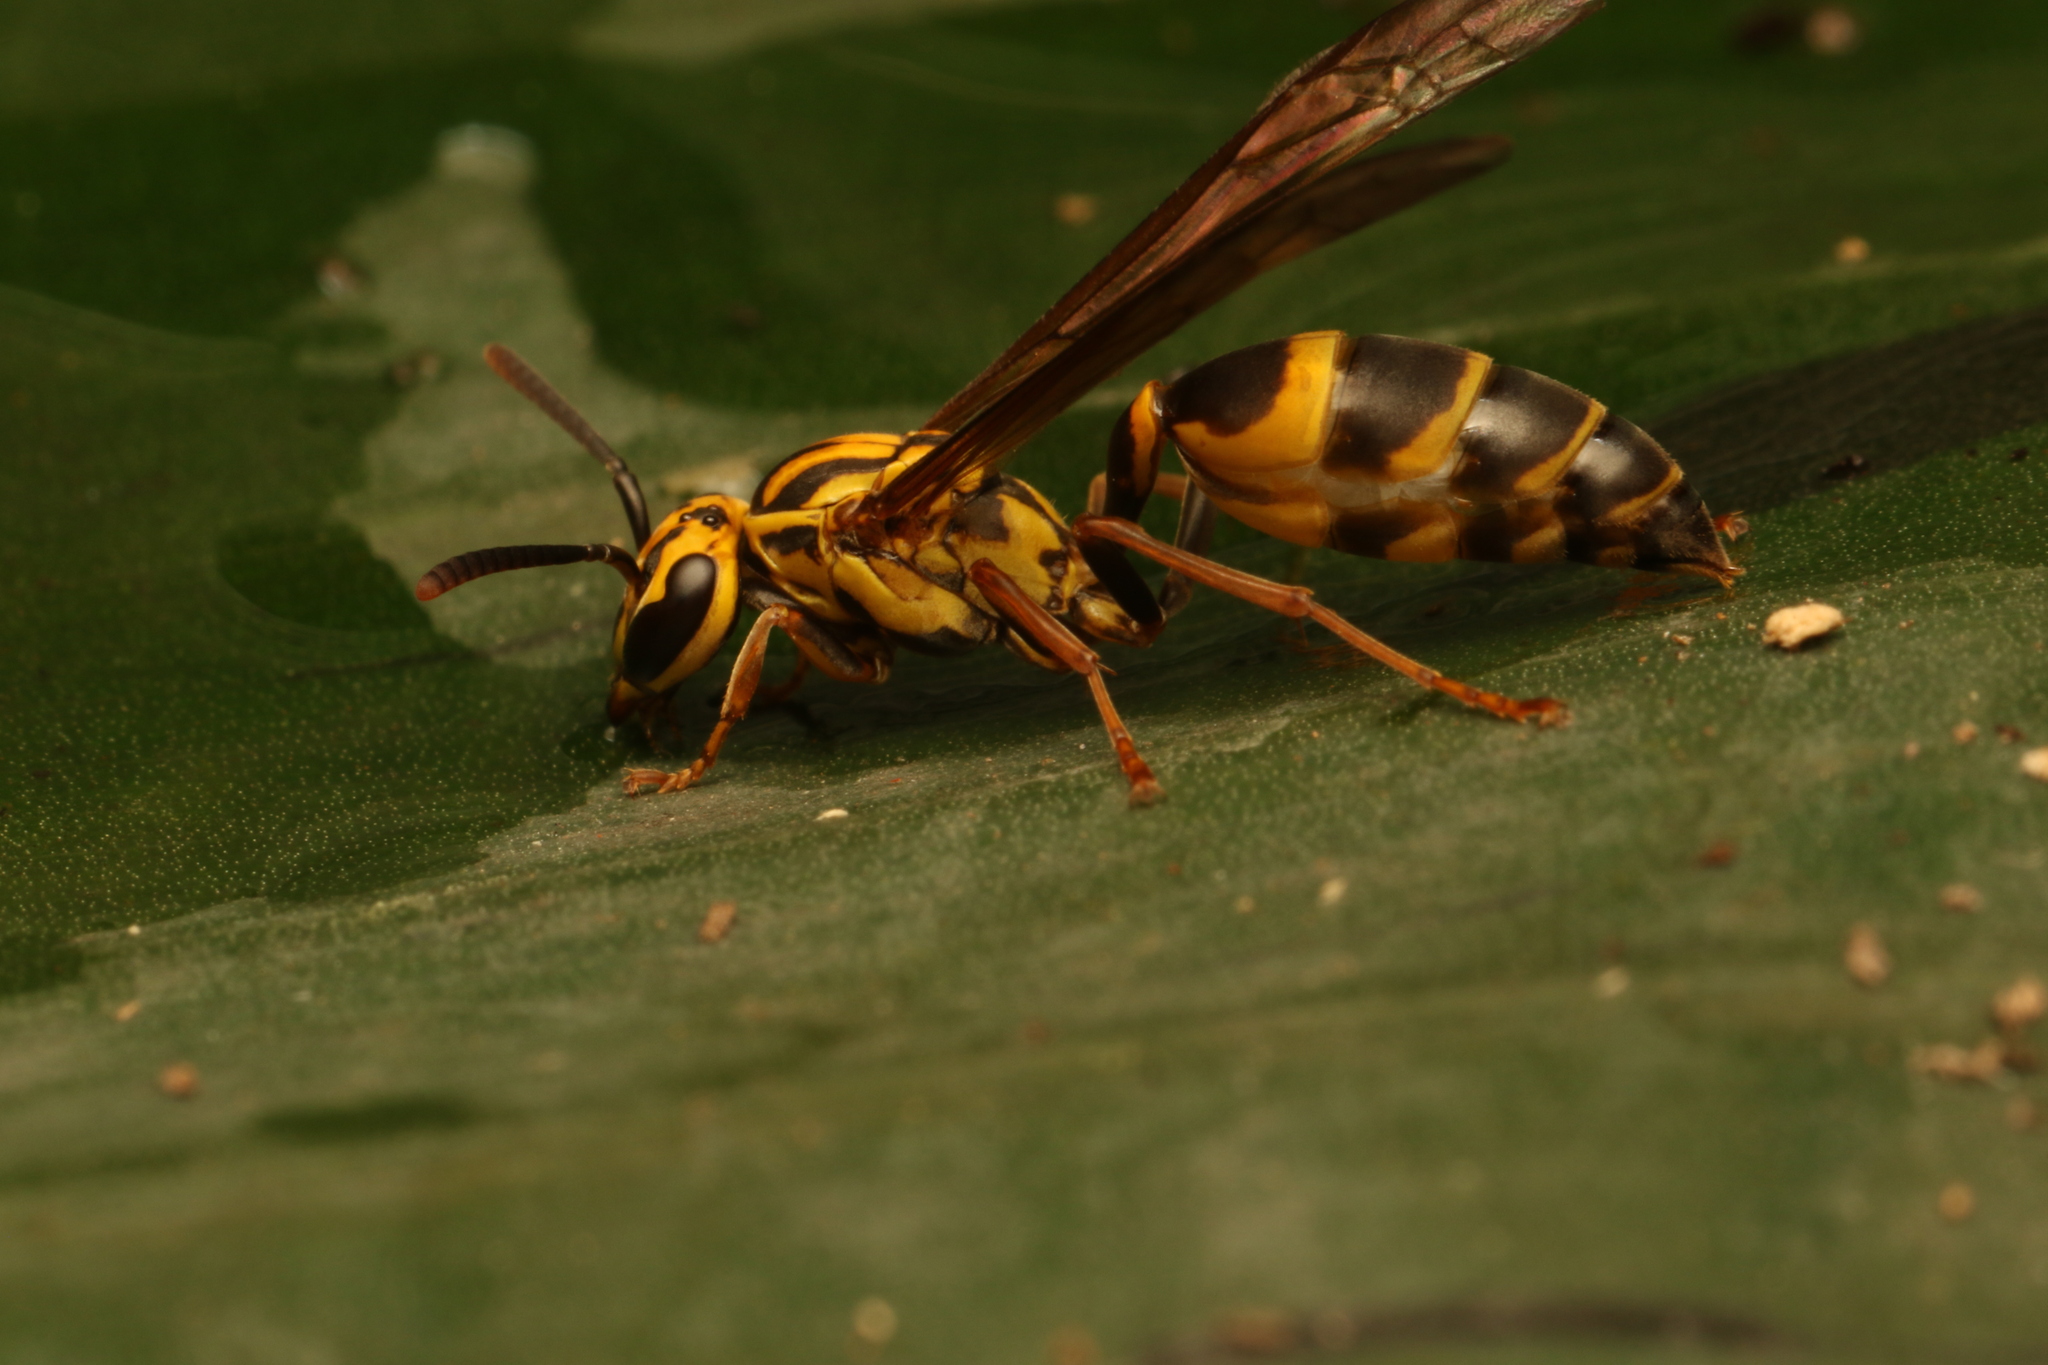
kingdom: Animalia
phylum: Arthropoda
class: Insecta
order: Hymenoptera
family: Eumenidae
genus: Polybia
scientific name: Polybia fastidiosuscula
